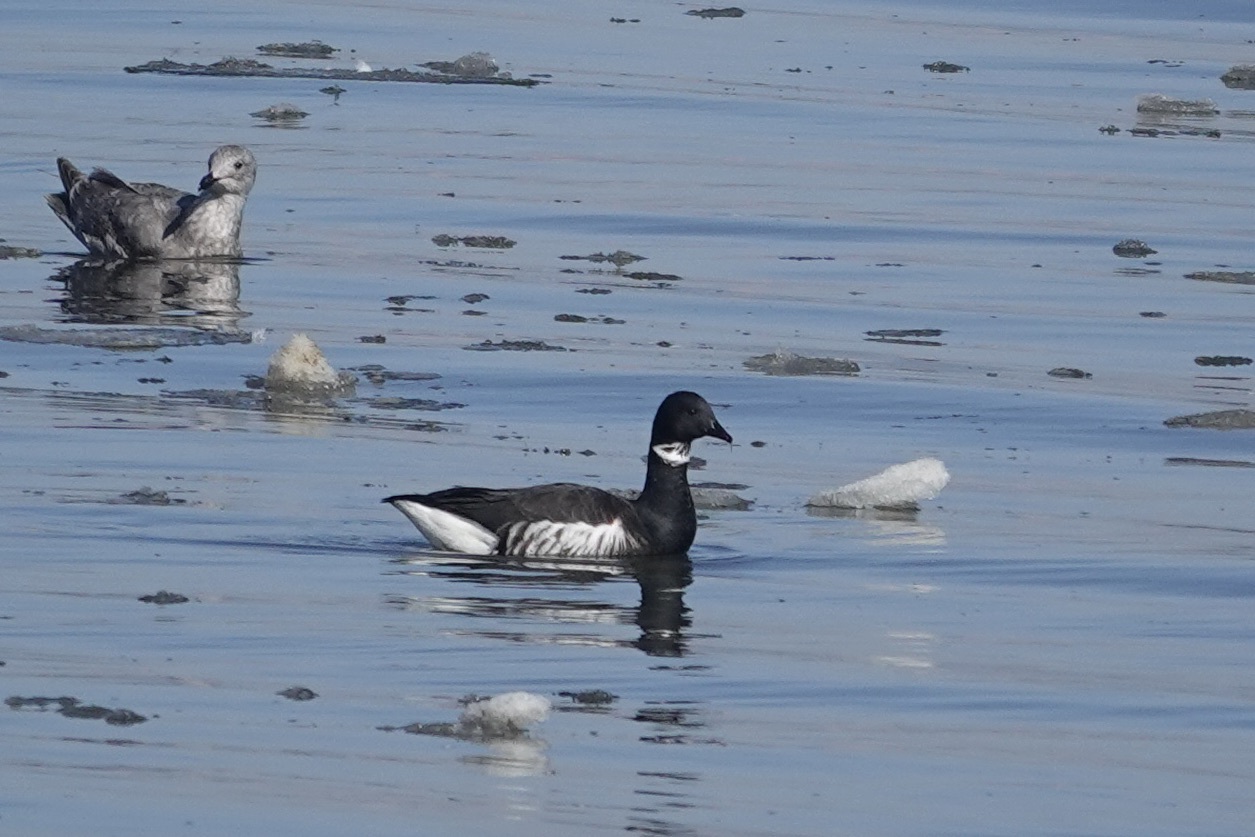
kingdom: Animalia
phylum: Chordata
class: Aves
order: Anseriformes
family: Anatidae
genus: Branta
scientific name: Branta bernicla
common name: Brant goose
